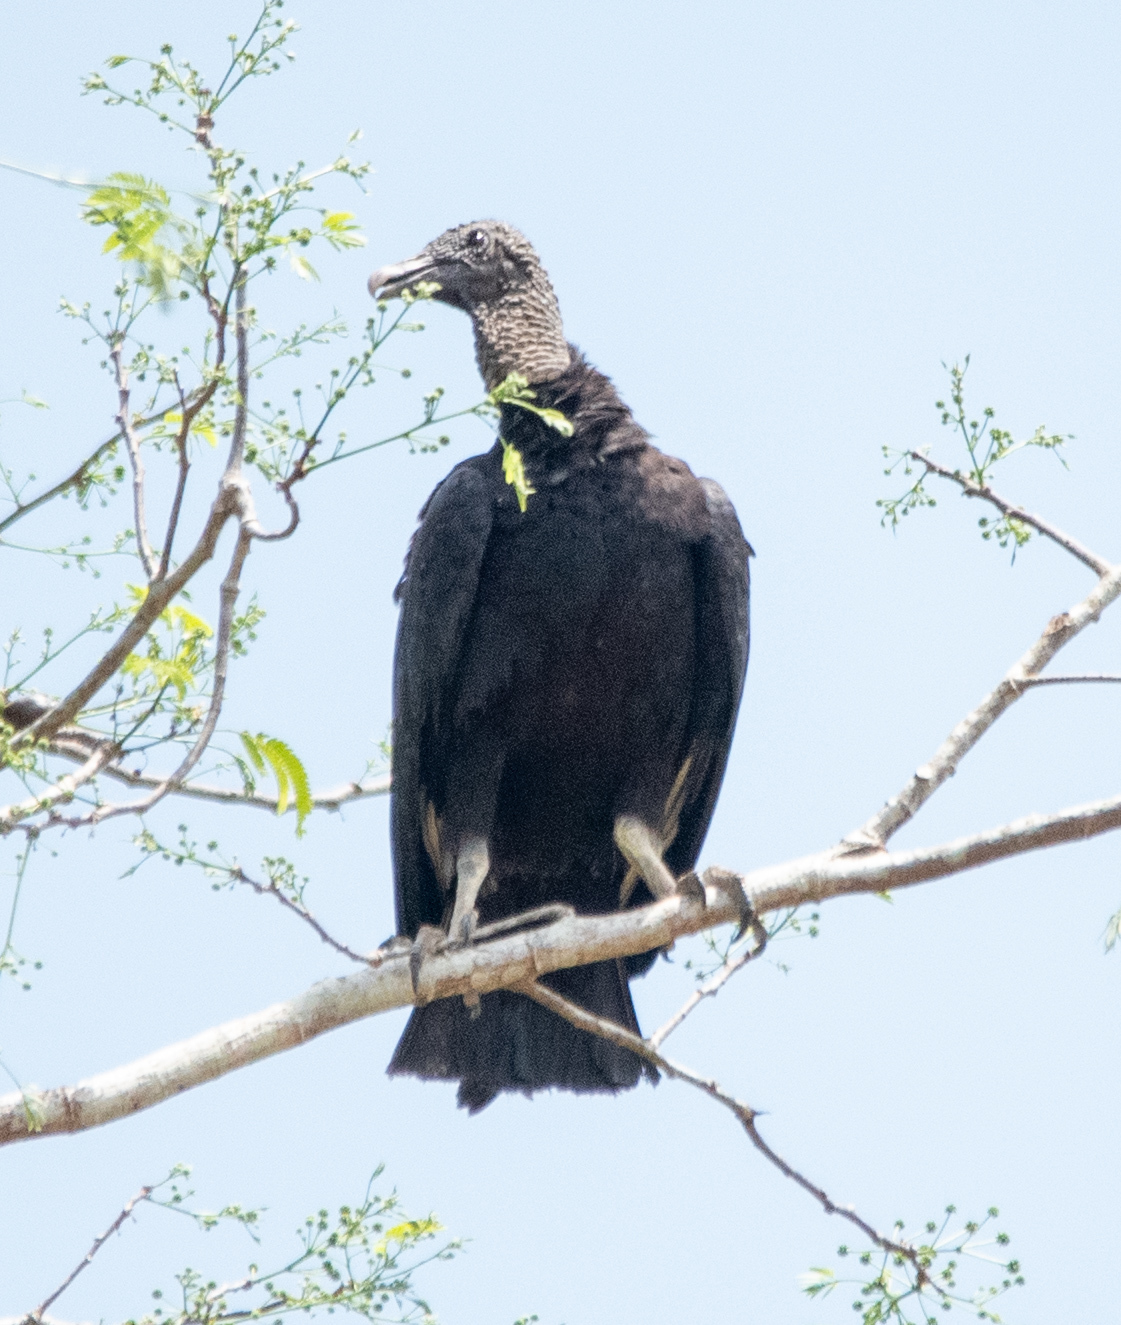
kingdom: Animalia
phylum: Chordata
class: Aves
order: Accipitriformes
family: Cathartidae
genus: Coragyps
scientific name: Coragyps atratus
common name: Black vulture
